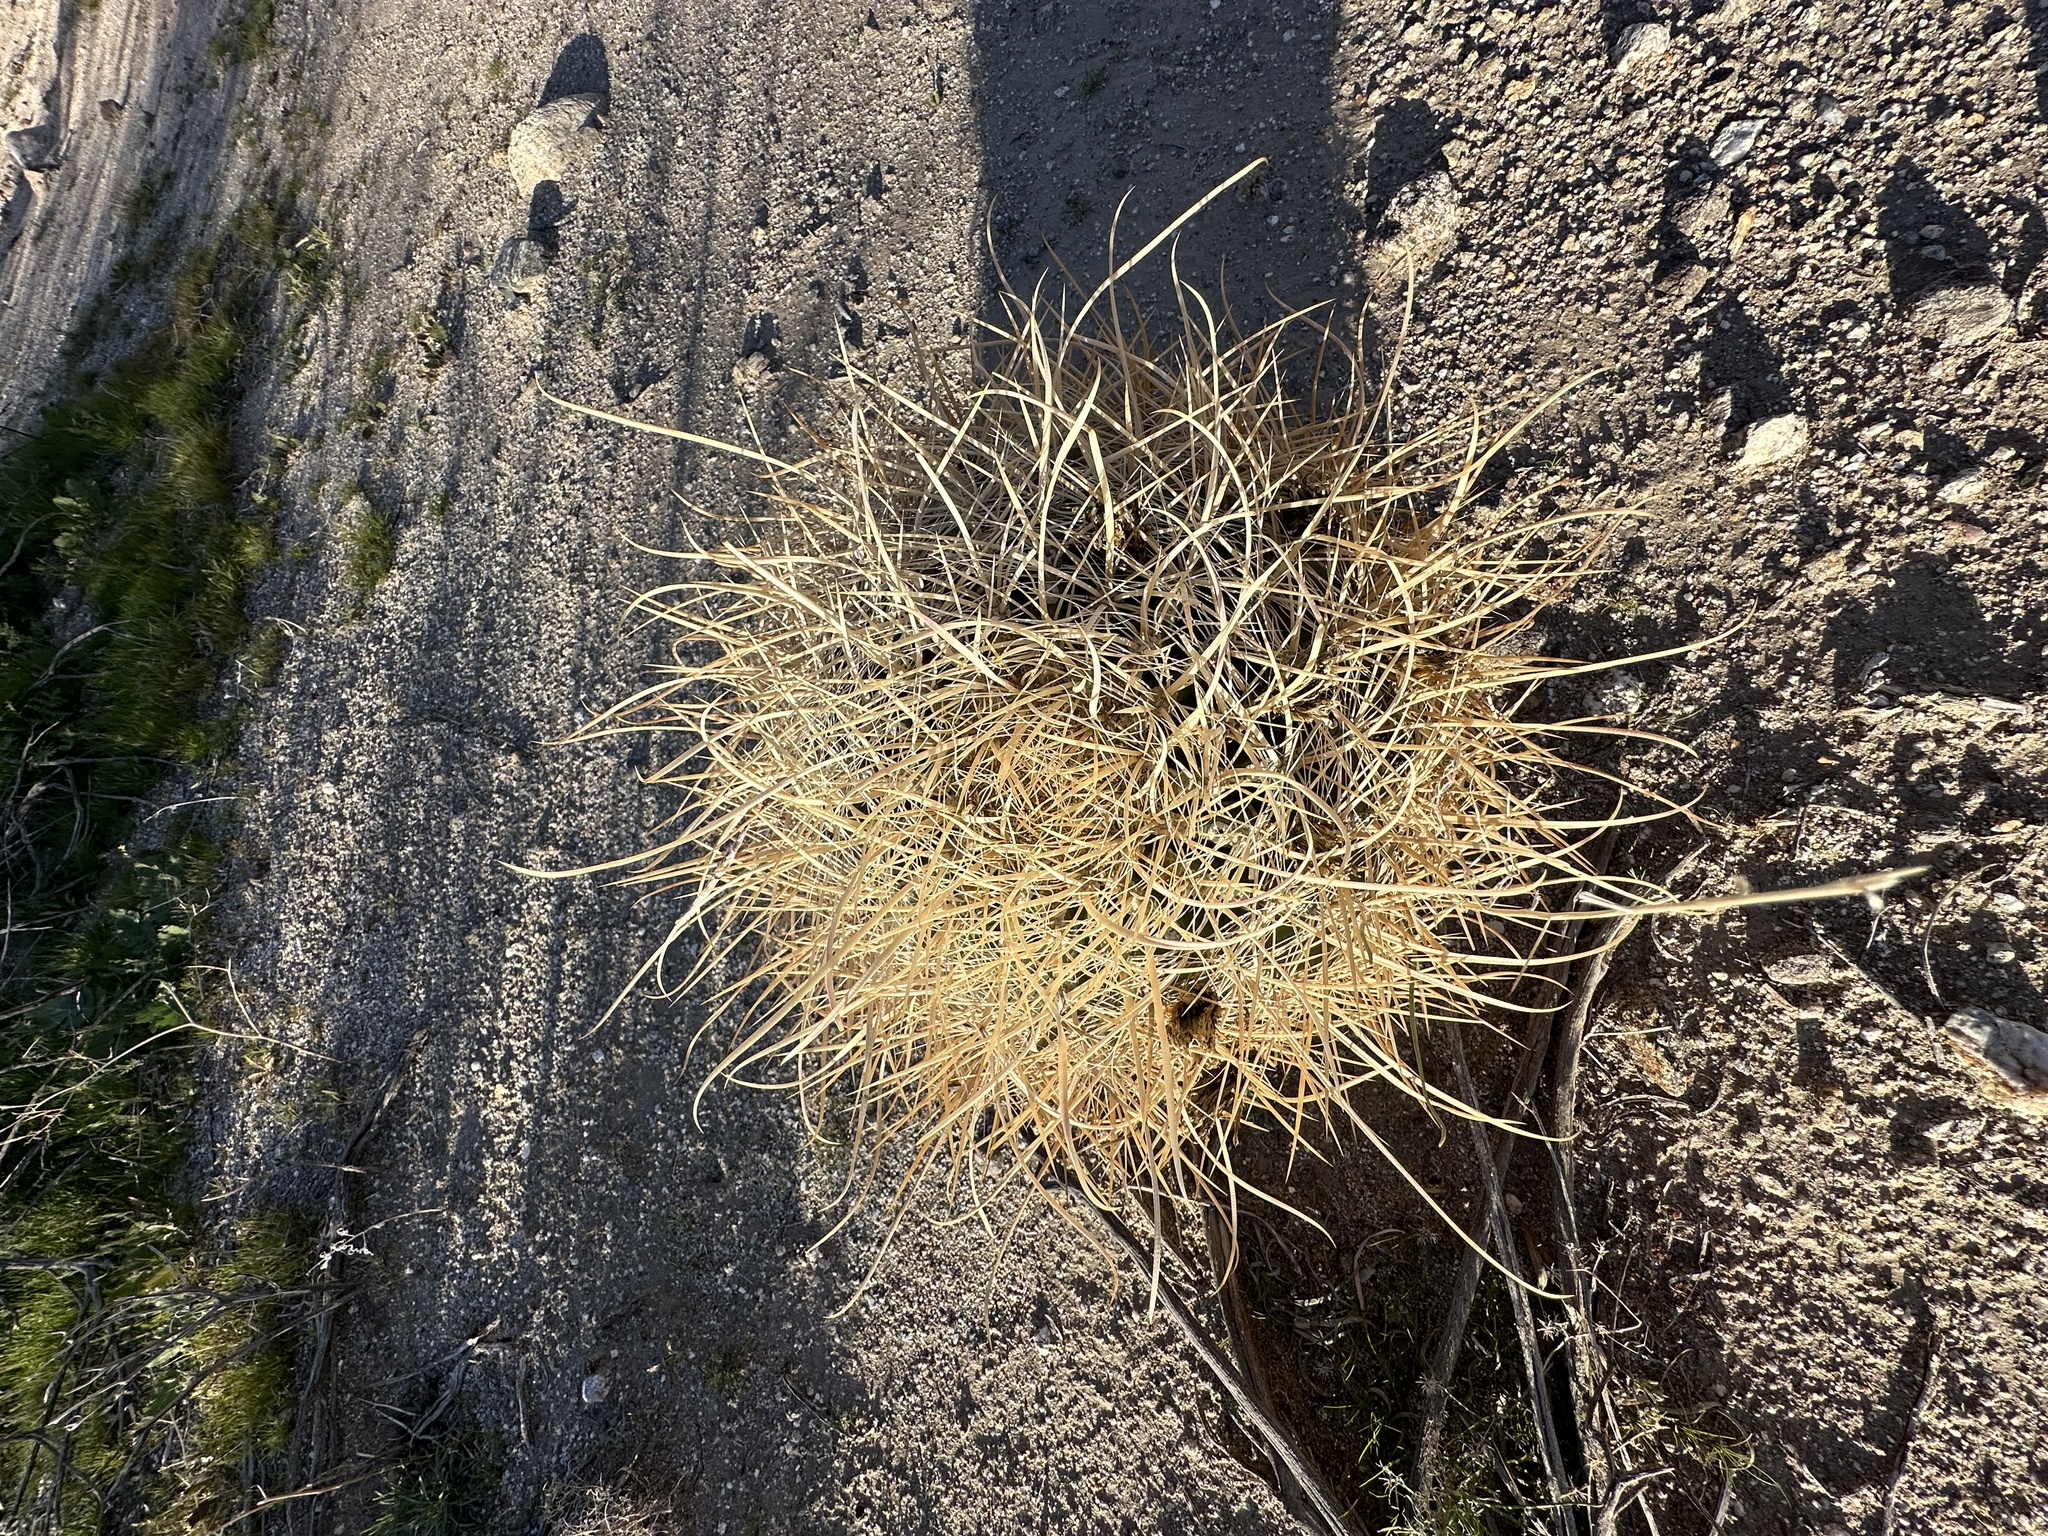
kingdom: Plantae
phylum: Tracheophyta
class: Magnoliopsida
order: Caryophyllales
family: Cactaceae
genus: Ferocactus
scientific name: Ferocactus cylindraceus
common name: California barrel cactus
